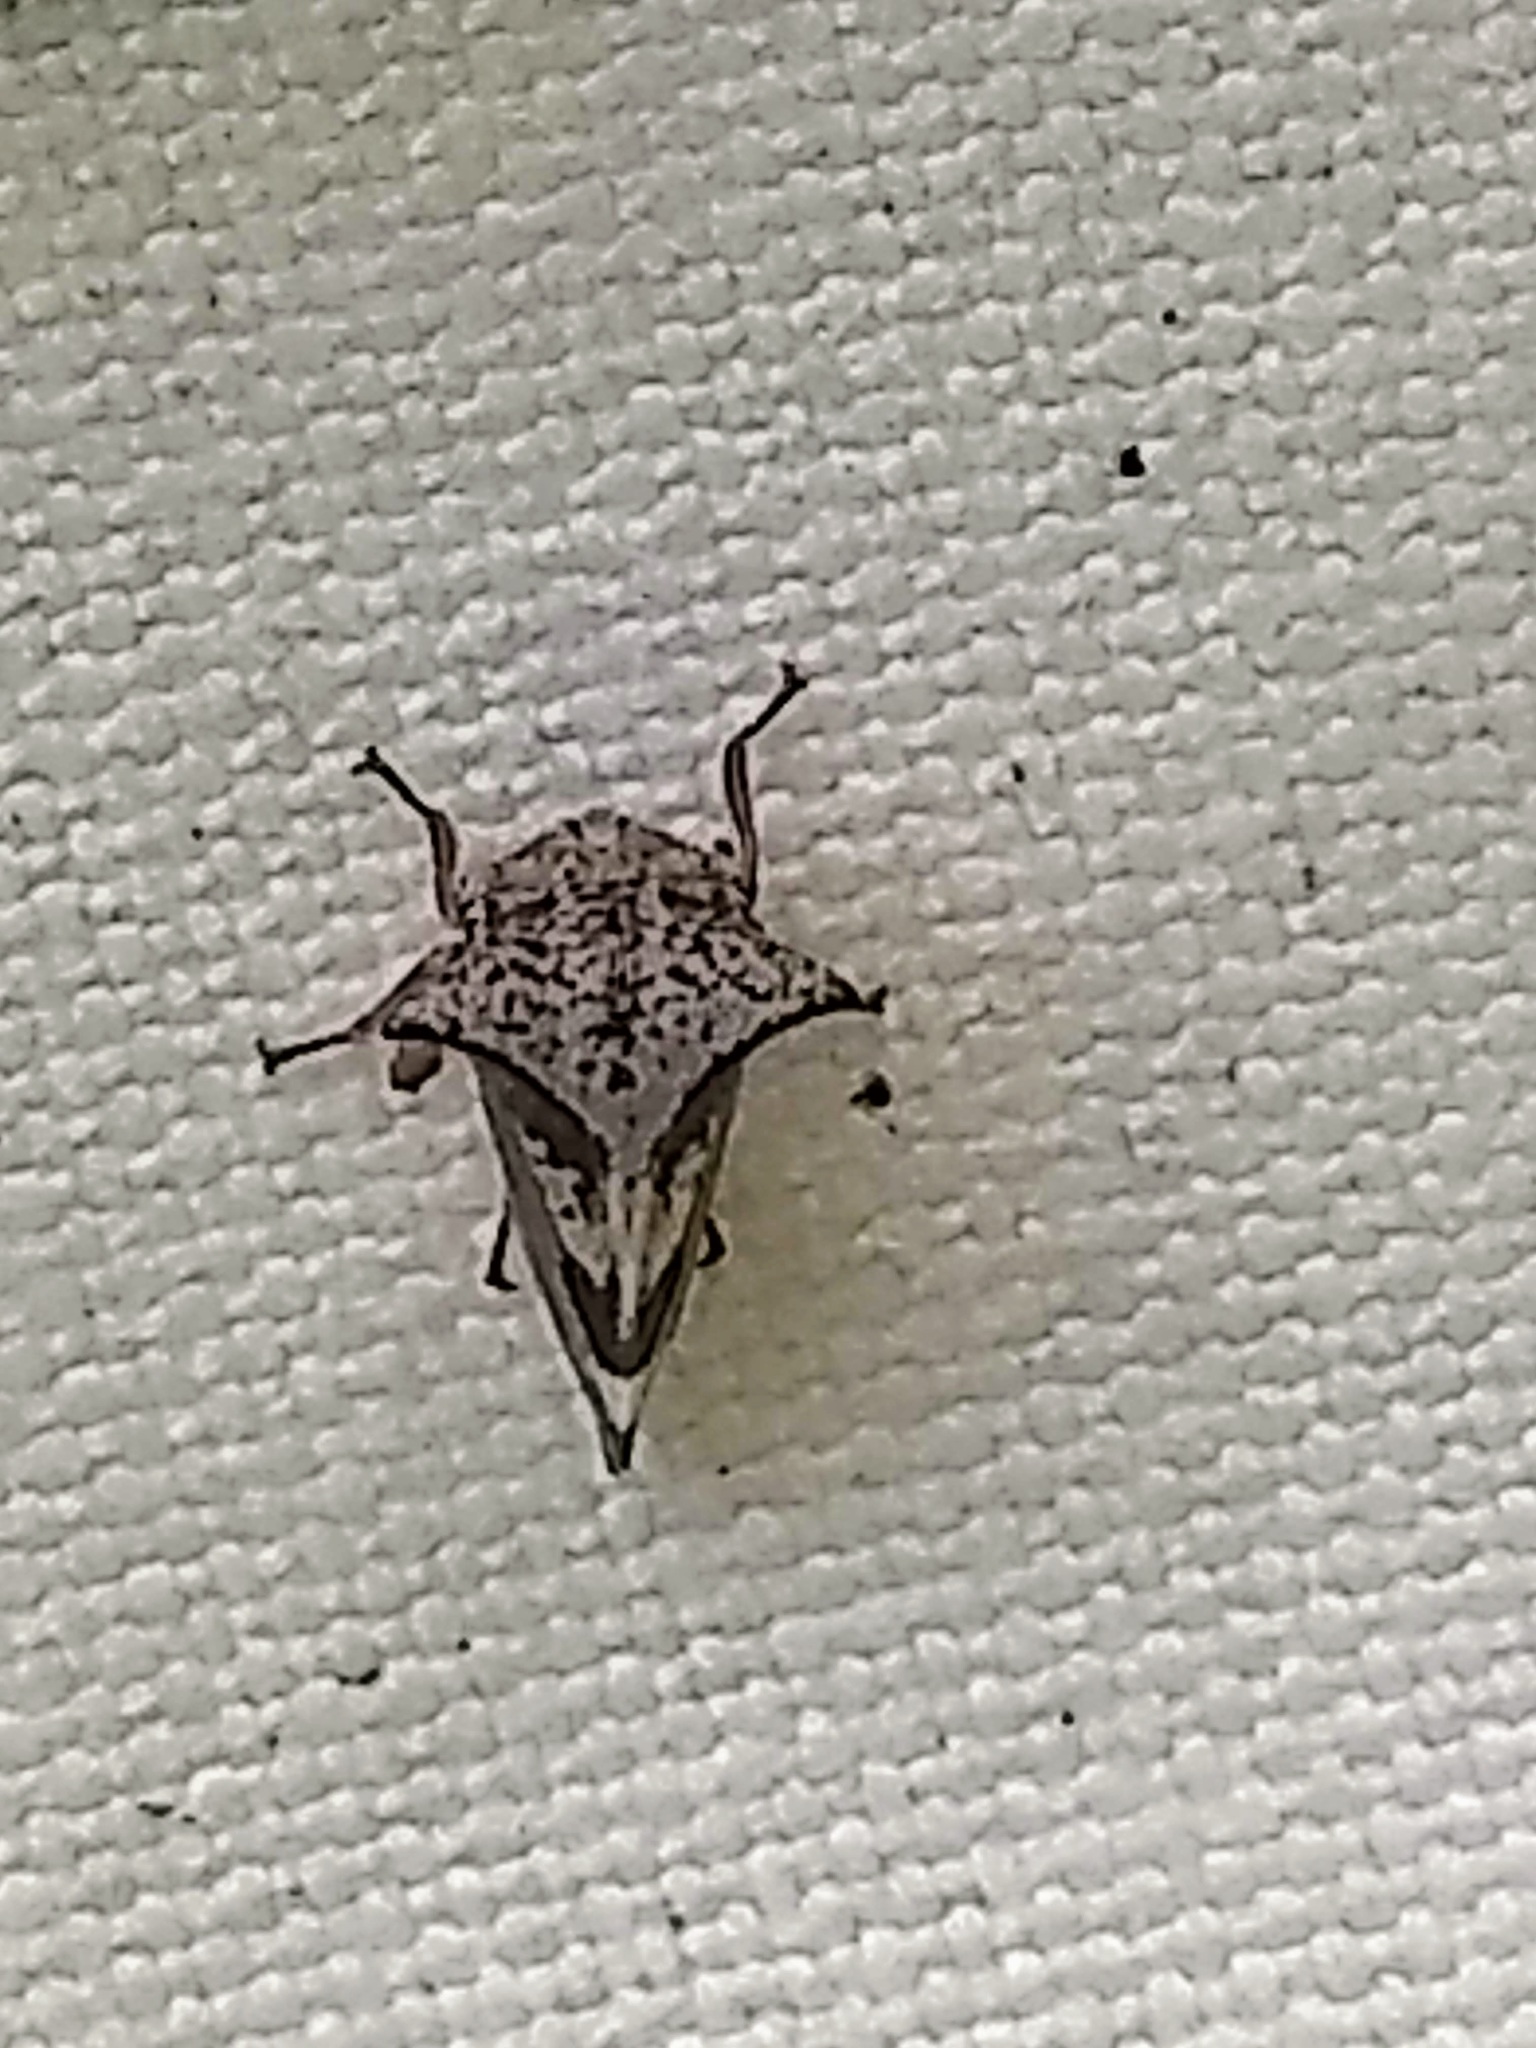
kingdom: Animalia
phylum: Arthropoda
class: Insecta
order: Hemiptera
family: Membracidae
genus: Stictocephala
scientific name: Stictocephala diceros
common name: Two-horned treehopper
